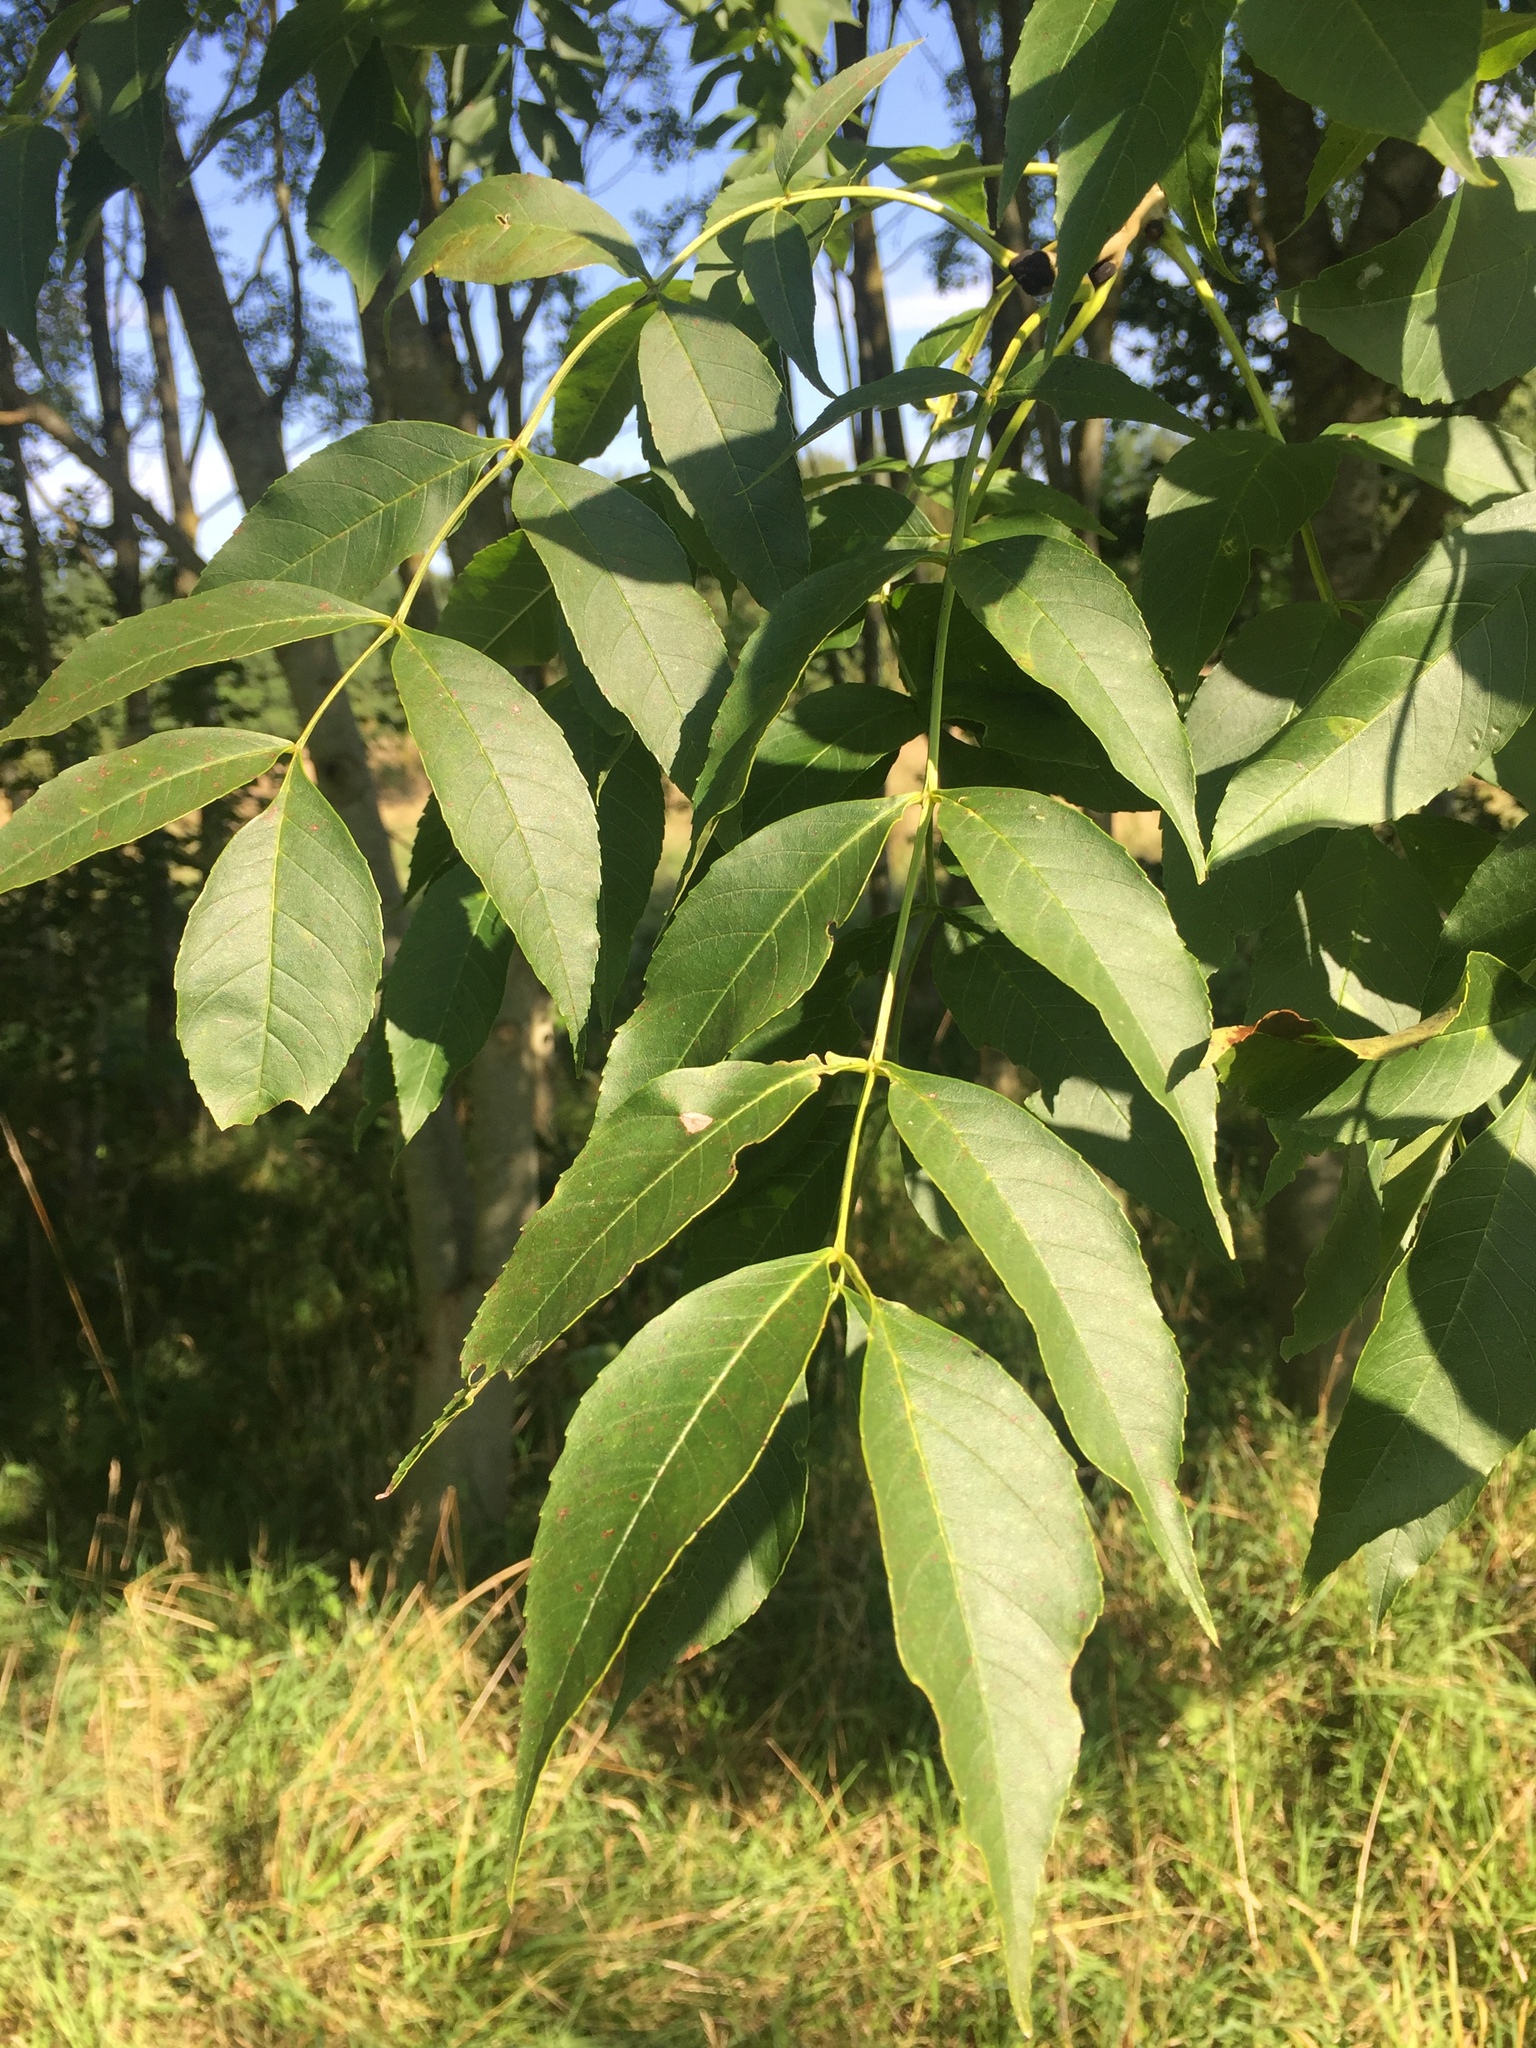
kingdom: Plantae
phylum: Tracheophyta
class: Magnoliopsida
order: Lamiales
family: Oleaceae
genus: Fraxinus
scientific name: Fraxinus excelsior
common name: European ash
